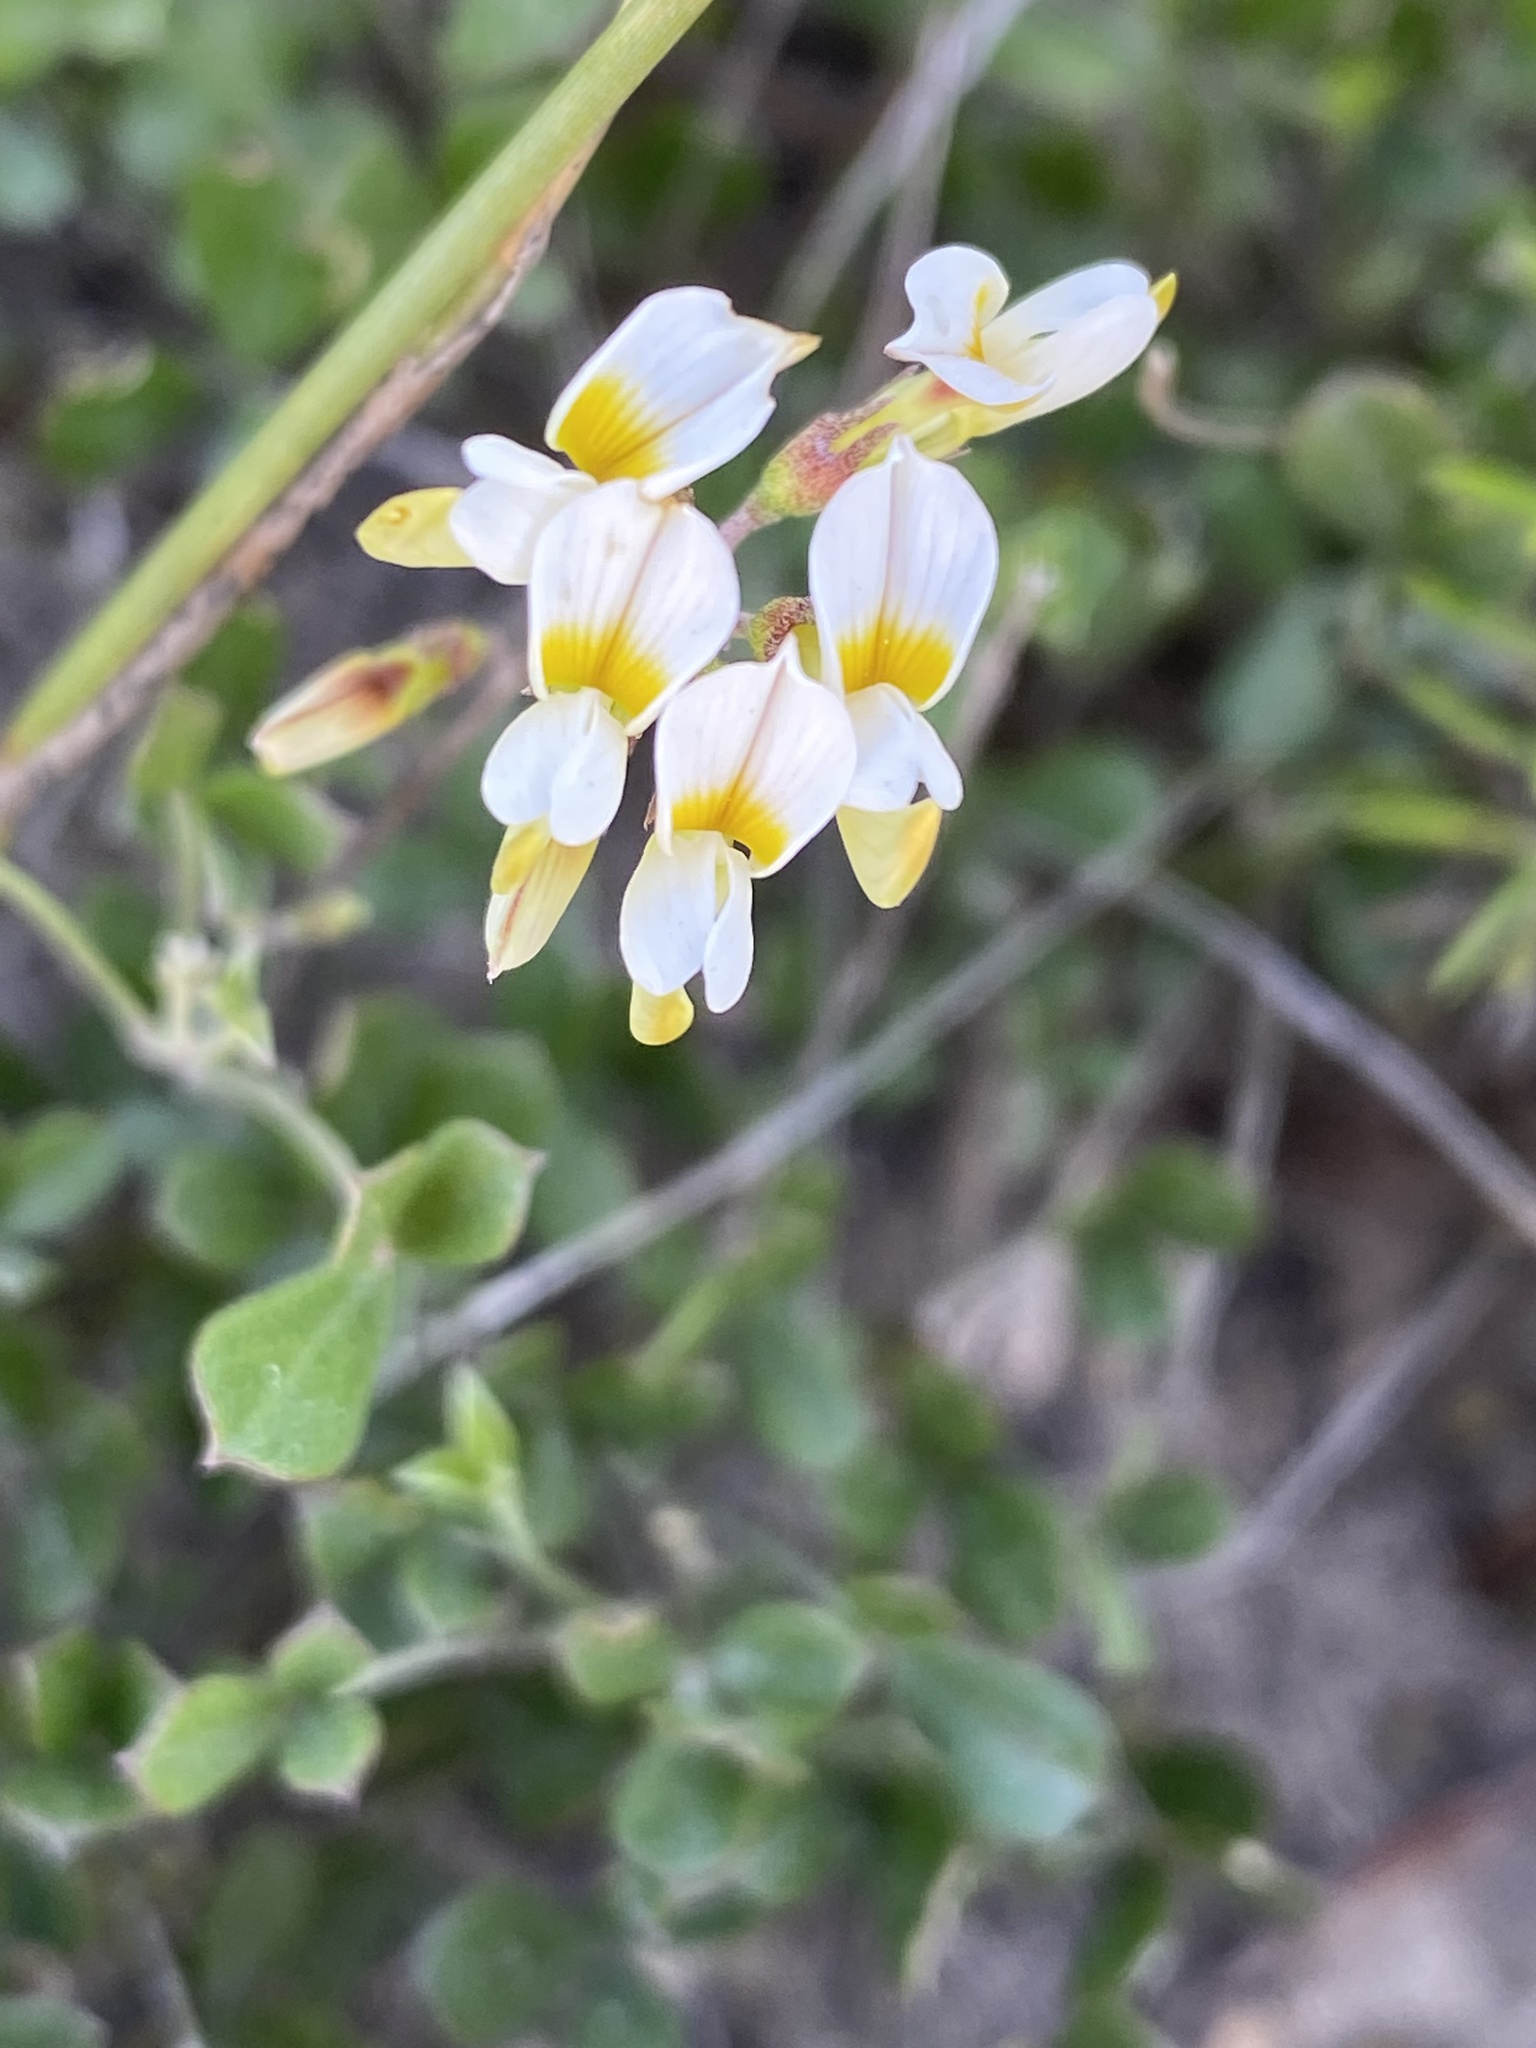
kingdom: Plantae
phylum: Tracheophyta
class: Magnoliopsida
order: Fabales
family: Fabaceae
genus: Lotononis
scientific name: Lotononis glabra
